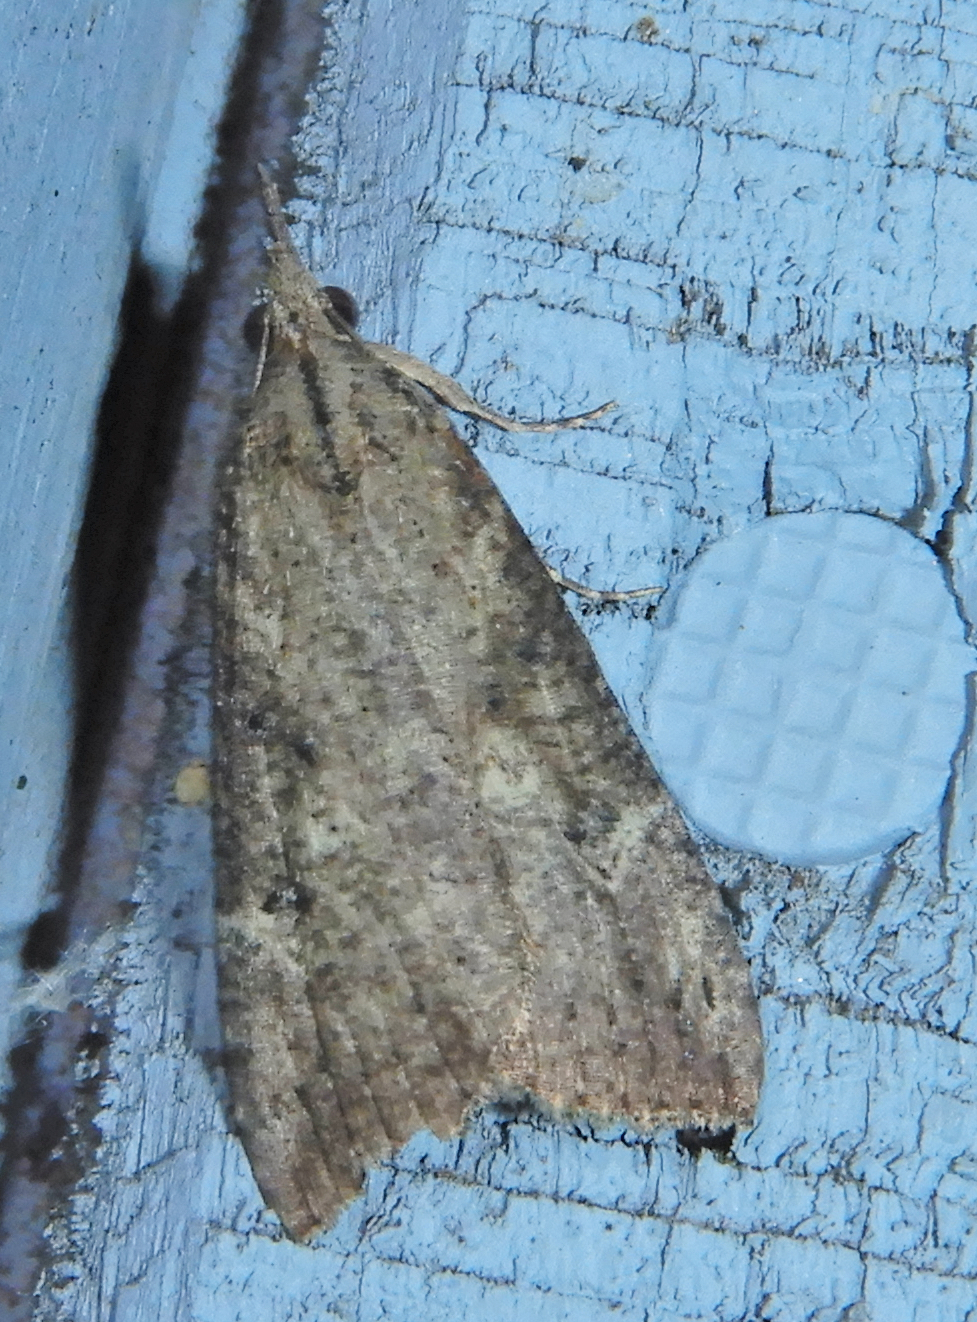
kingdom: Animalia
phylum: Arthropoda
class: Insecta
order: Lepidoptera
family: Erebidae
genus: Hypena
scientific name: Hypena humuli
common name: Hop vine snout
